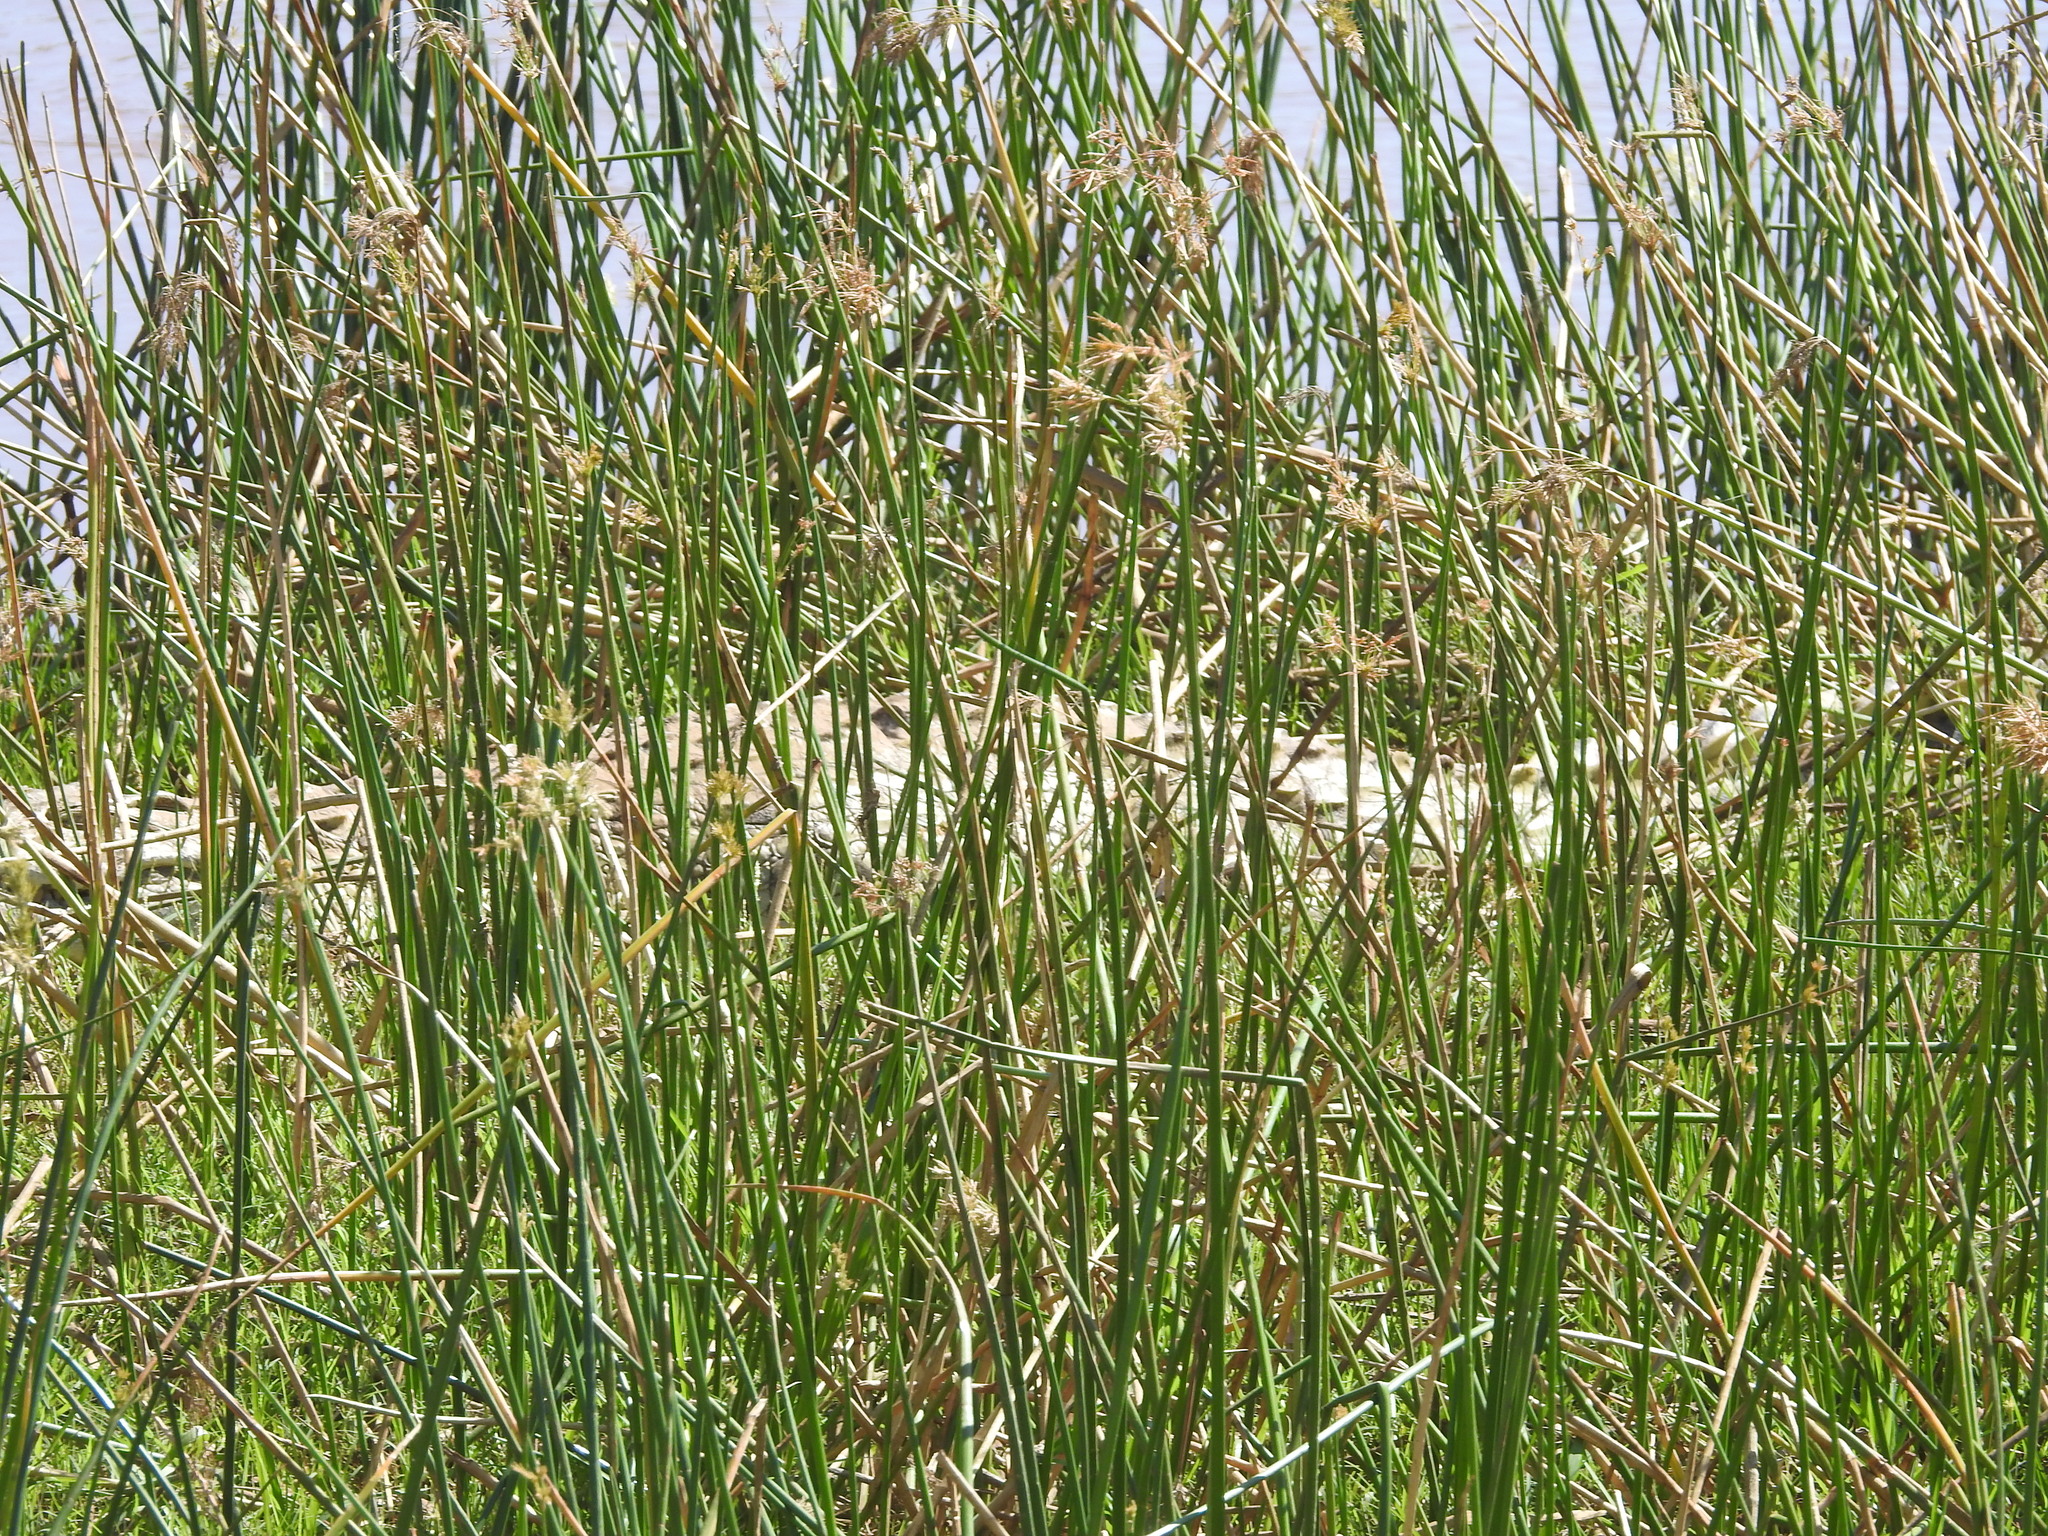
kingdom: Animalia
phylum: Chordata
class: Crocodylia
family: Crocodylidae
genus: Crocodylus
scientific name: Crocodylus niloticus
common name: Nile crocodile
